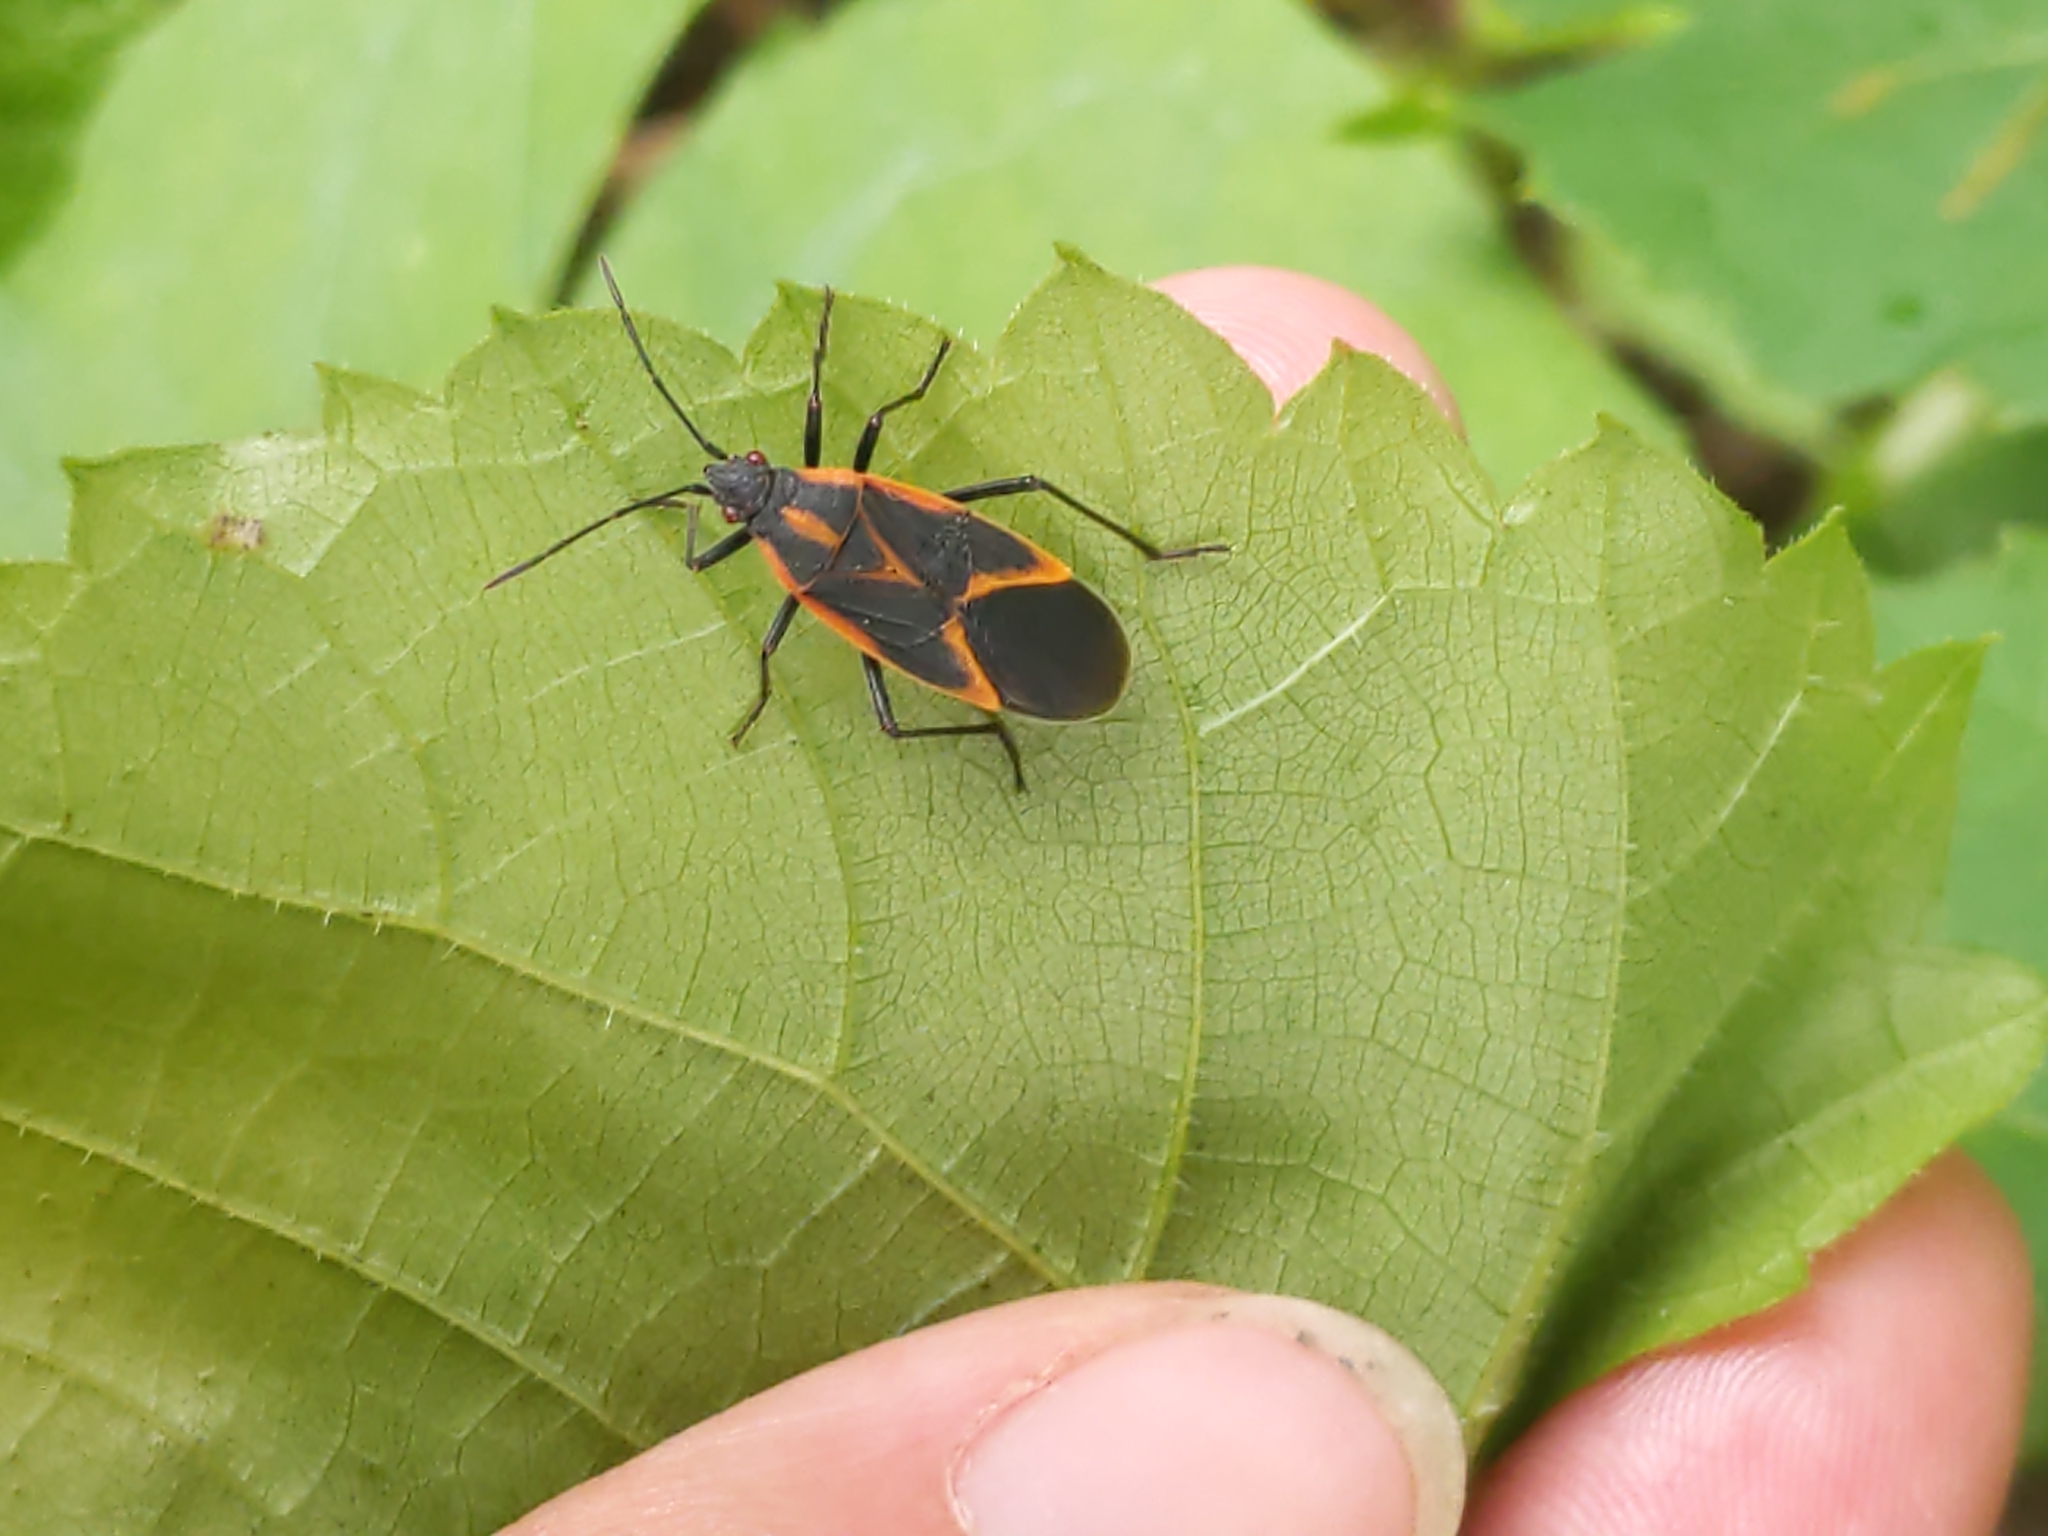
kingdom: Animalia
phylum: Arthropoda
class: Insecta
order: Hemiptera
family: Rhopalidae
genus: Boisea
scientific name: Boisea trivittata
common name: Boxelder bug
